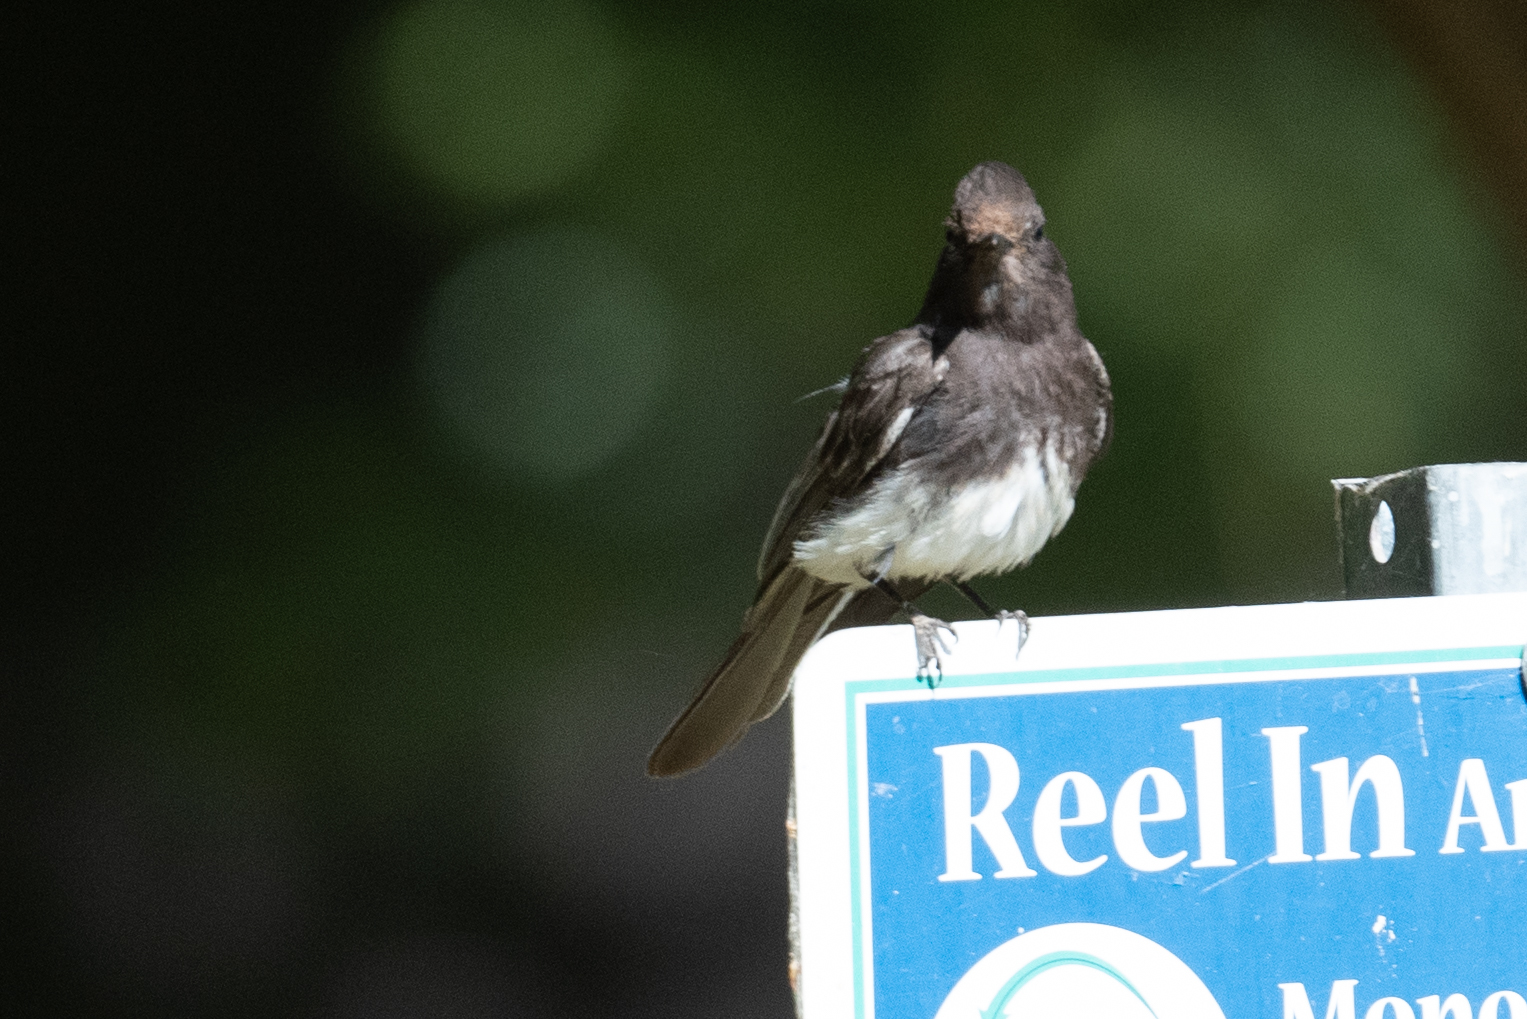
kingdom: Animalia
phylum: Chordata
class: Aves
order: Passeriformes
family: Tyrannidae
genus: Sayornis
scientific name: Sayornis nigricans
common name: Black phoebe
